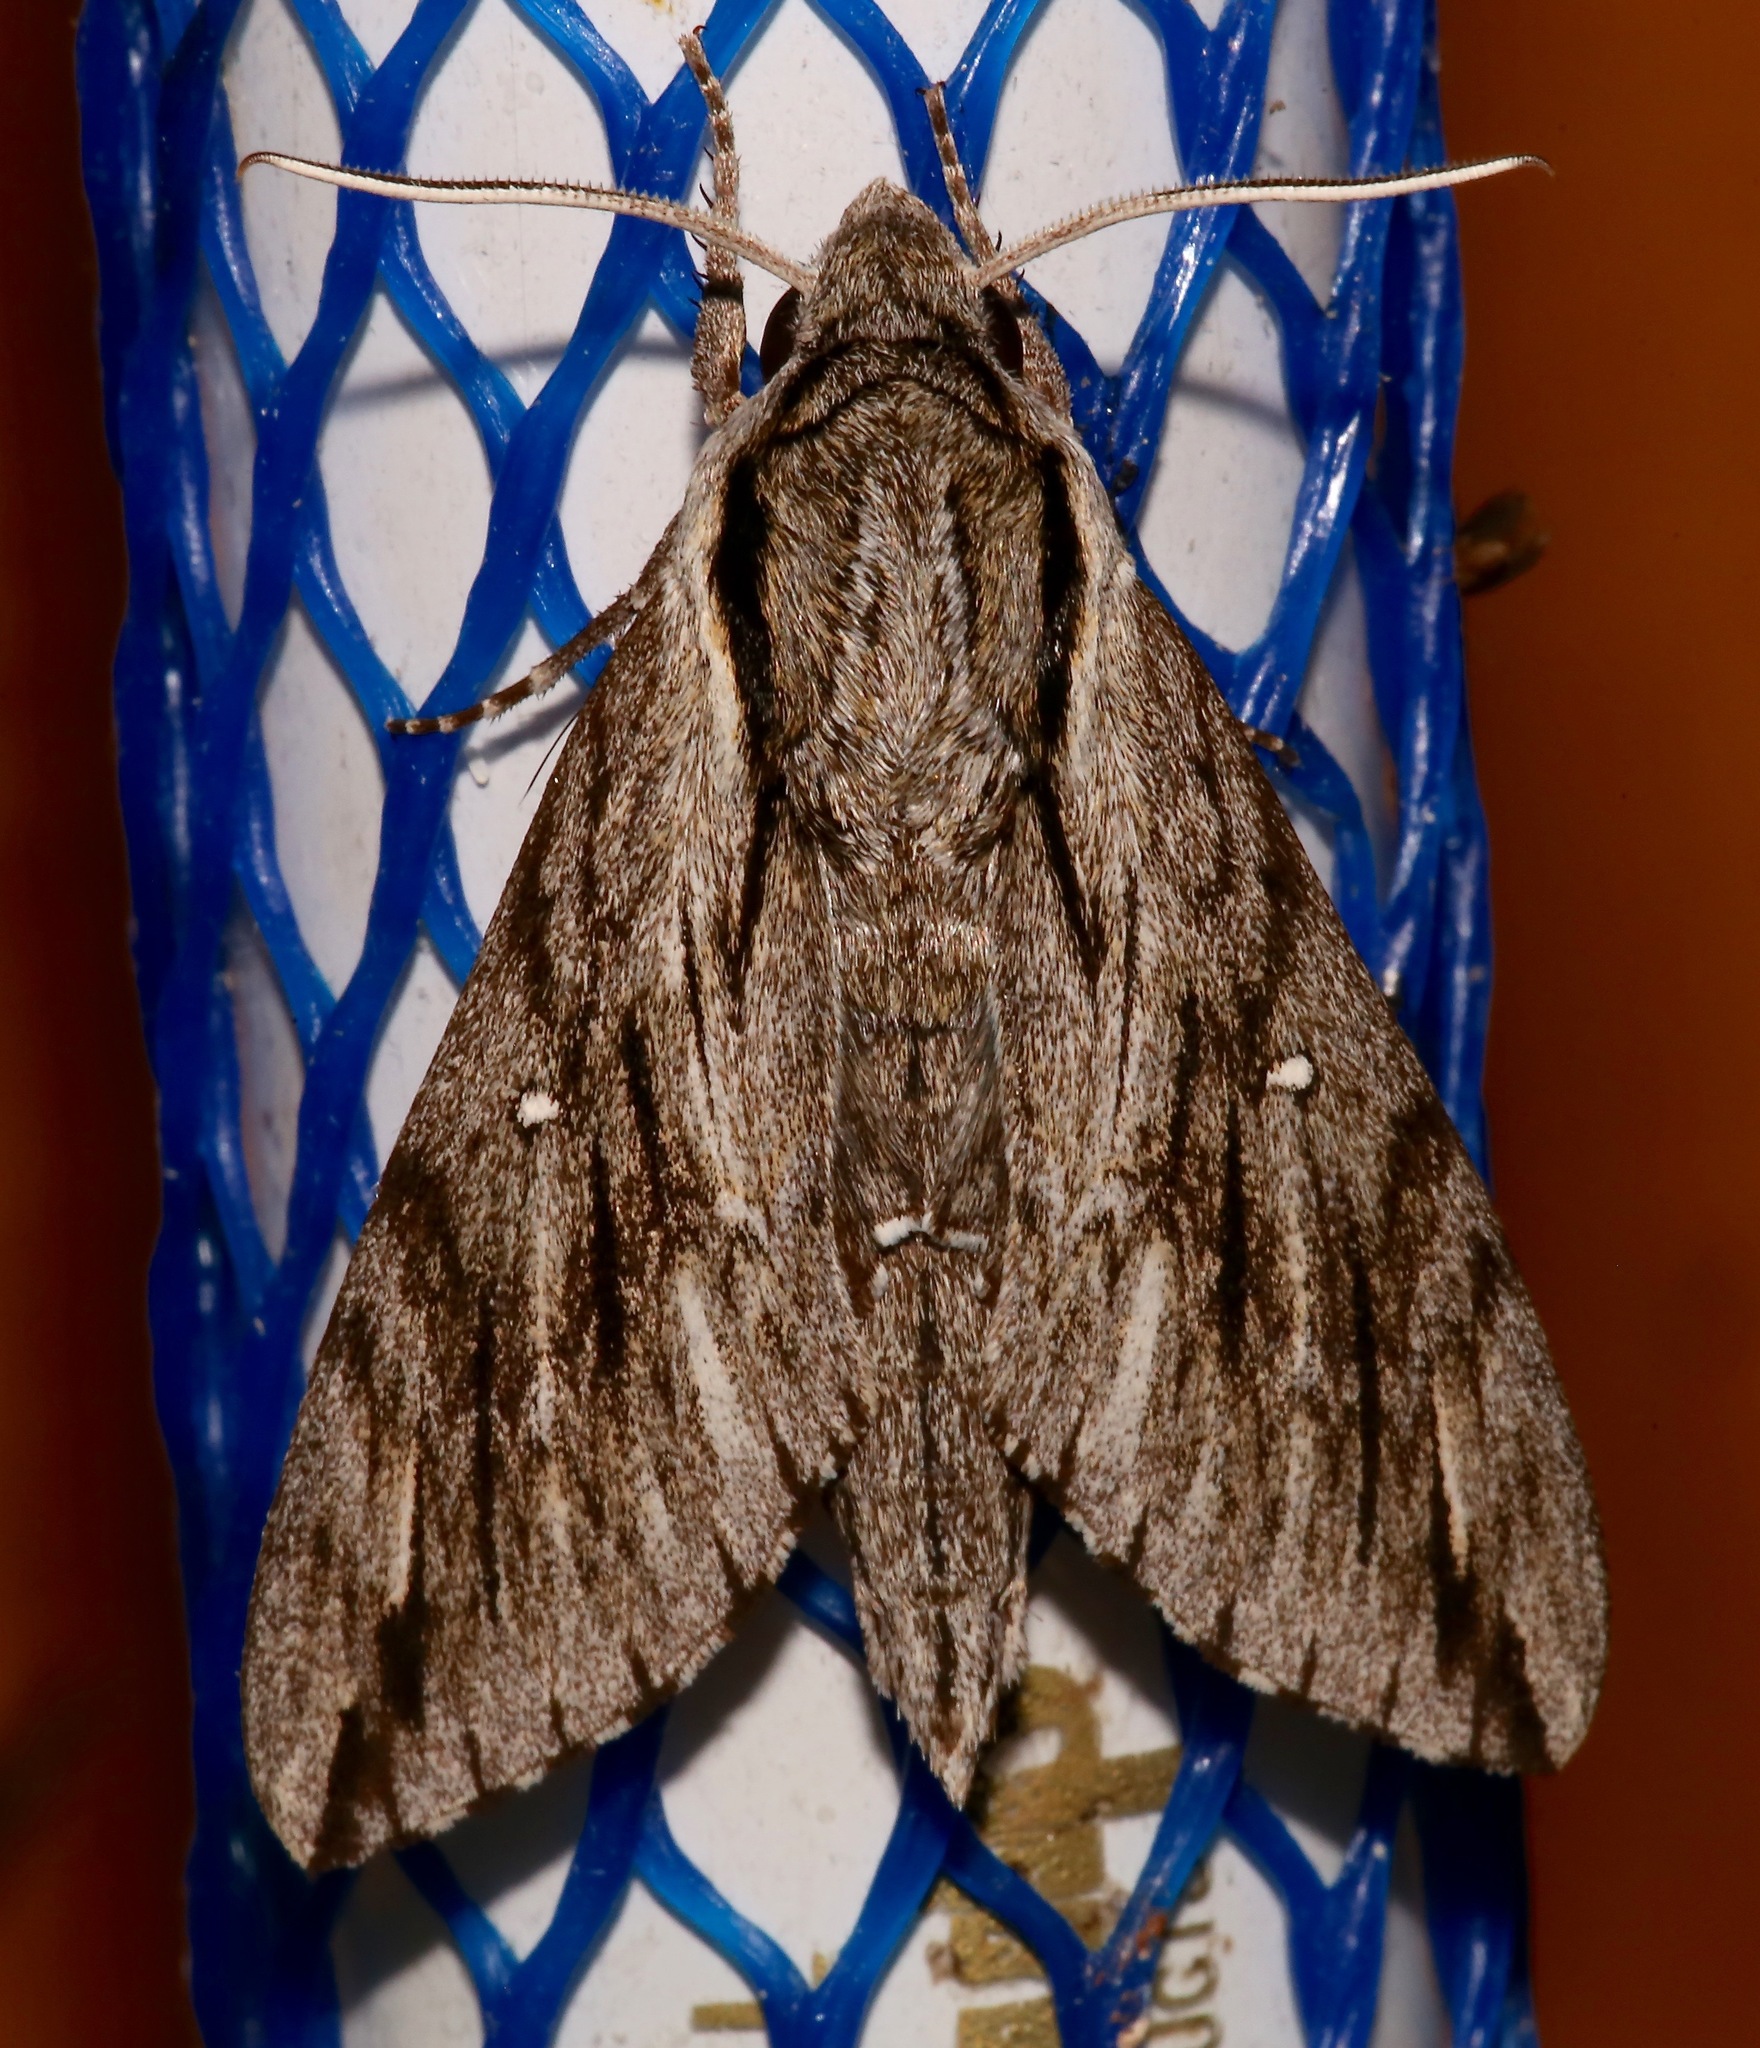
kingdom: Animalia
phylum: Arthropoda
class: Insecta
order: Lepidoptera
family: Sphingidae
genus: Paratrea
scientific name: Paratrea plebeja
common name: Plebian sphinx
